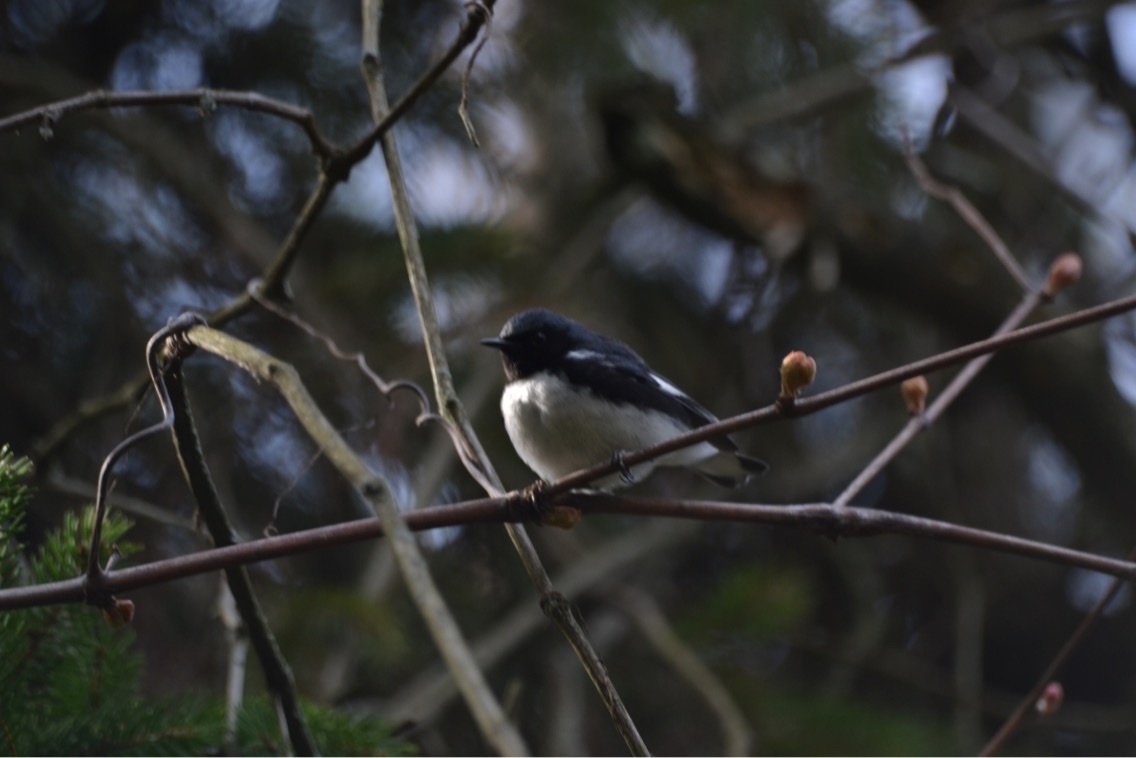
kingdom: Animalia
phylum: Chordata
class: Aves
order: Passeriformes
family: Parulidae
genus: Setophaga
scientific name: Setophaga caerulescens
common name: Black-throated blue warbler
